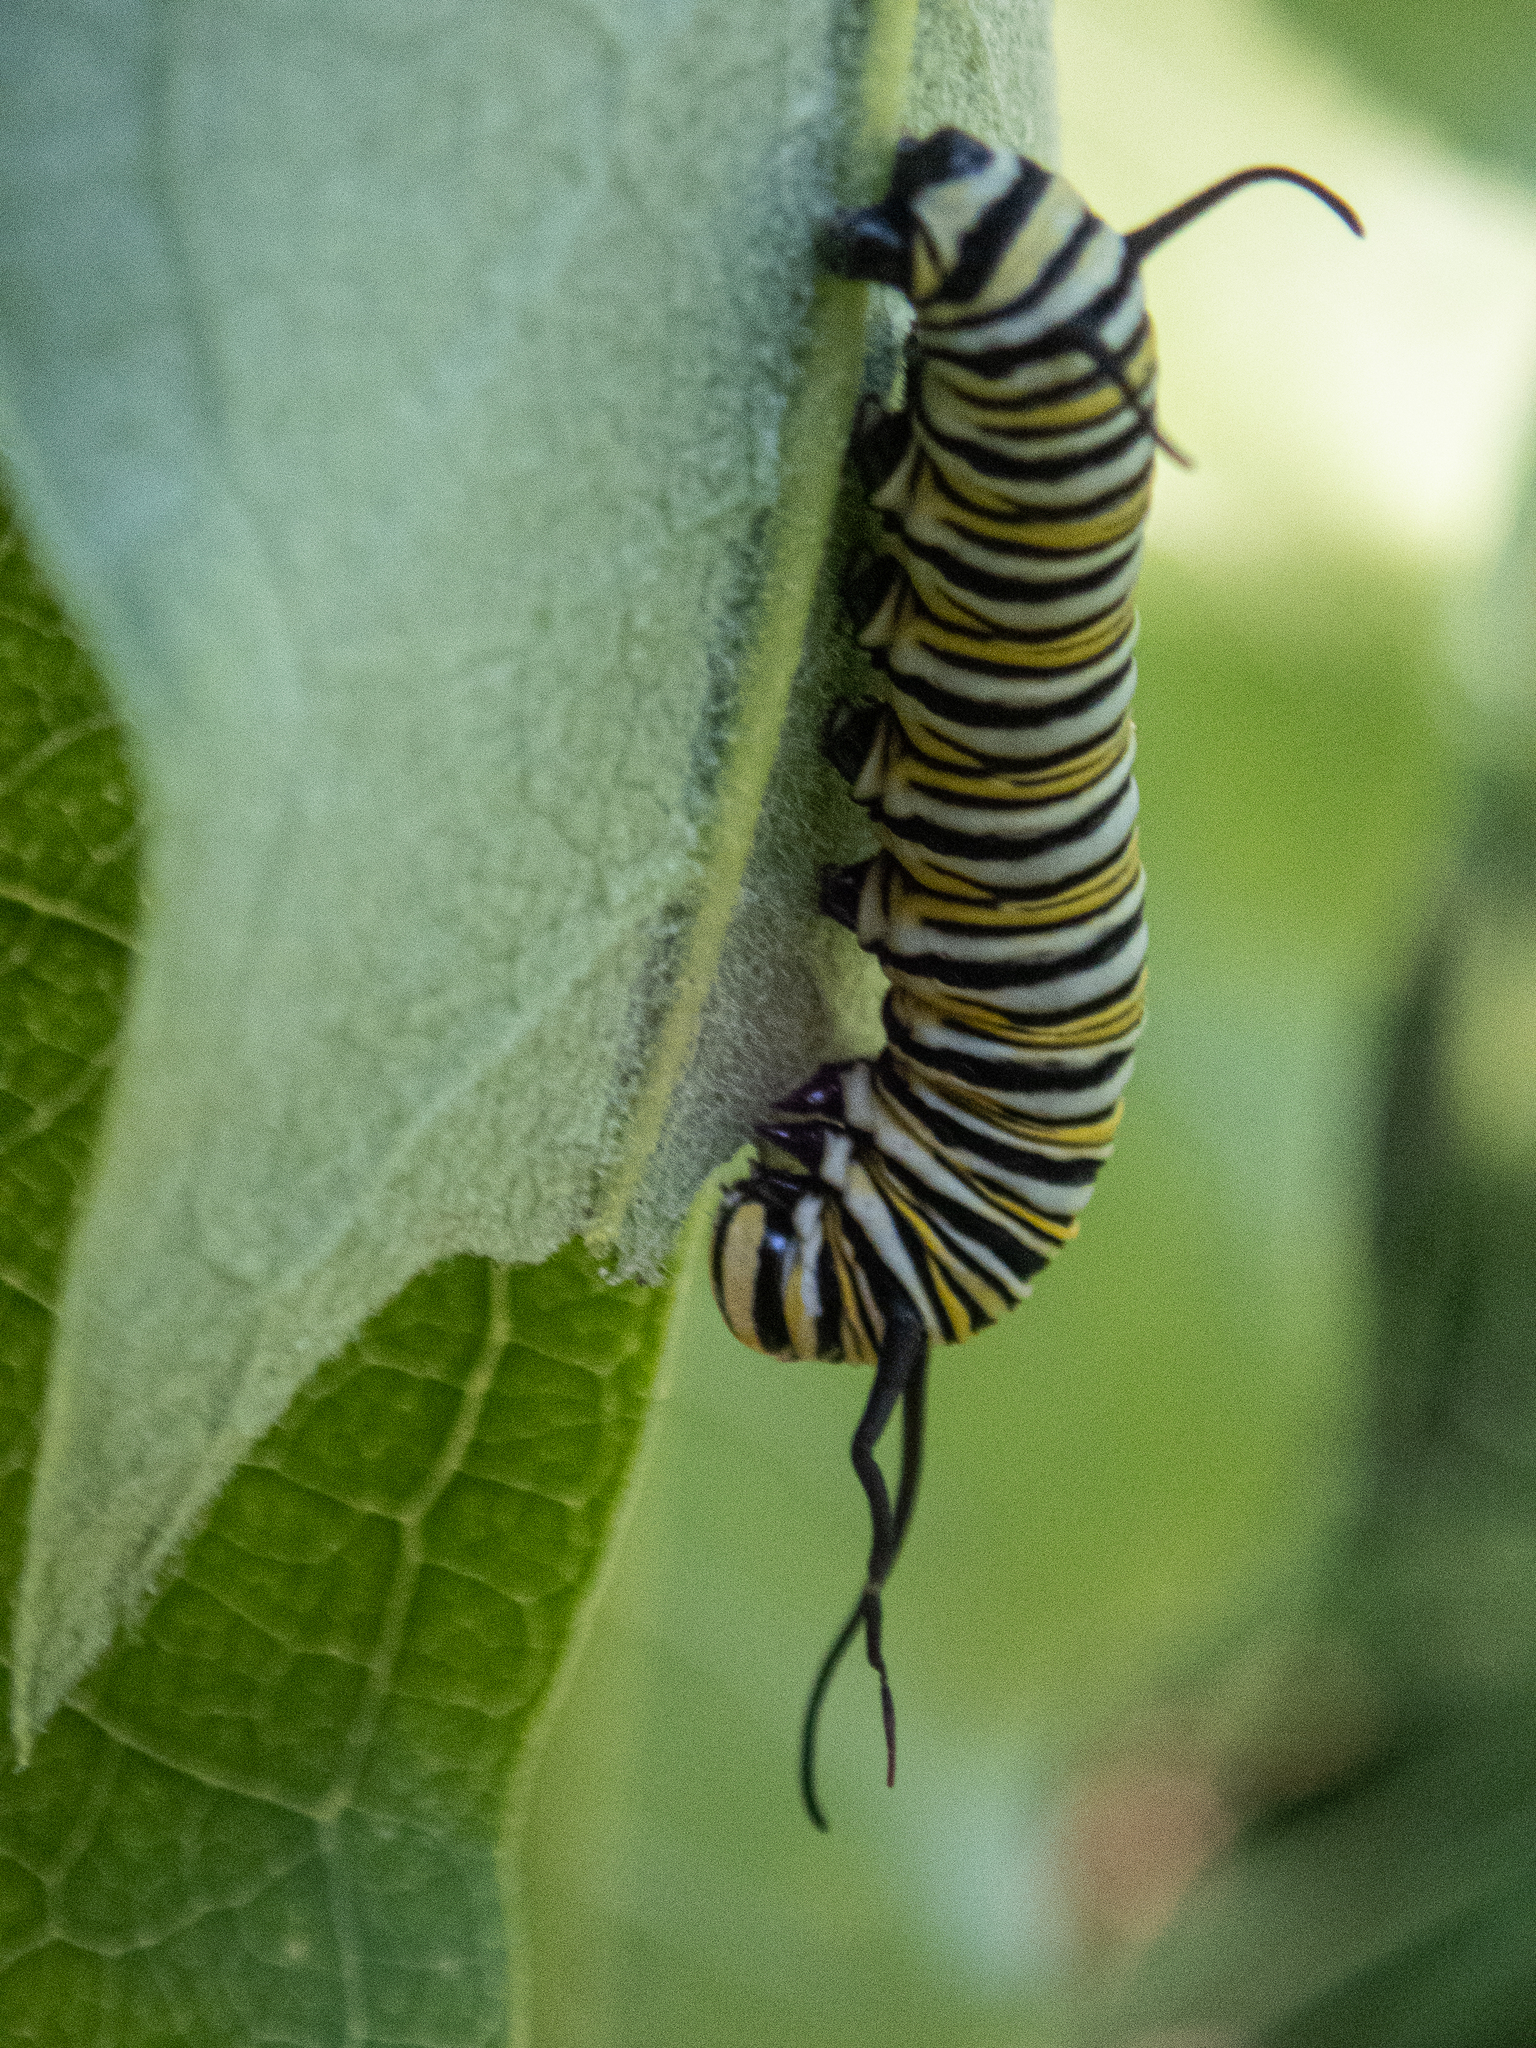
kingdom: Animalia
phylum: Arthropoda
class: Insecta
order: Lepidoptera
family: Nymphalidae
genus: Danaus
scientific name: Danaus plexippus
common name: Monarch
